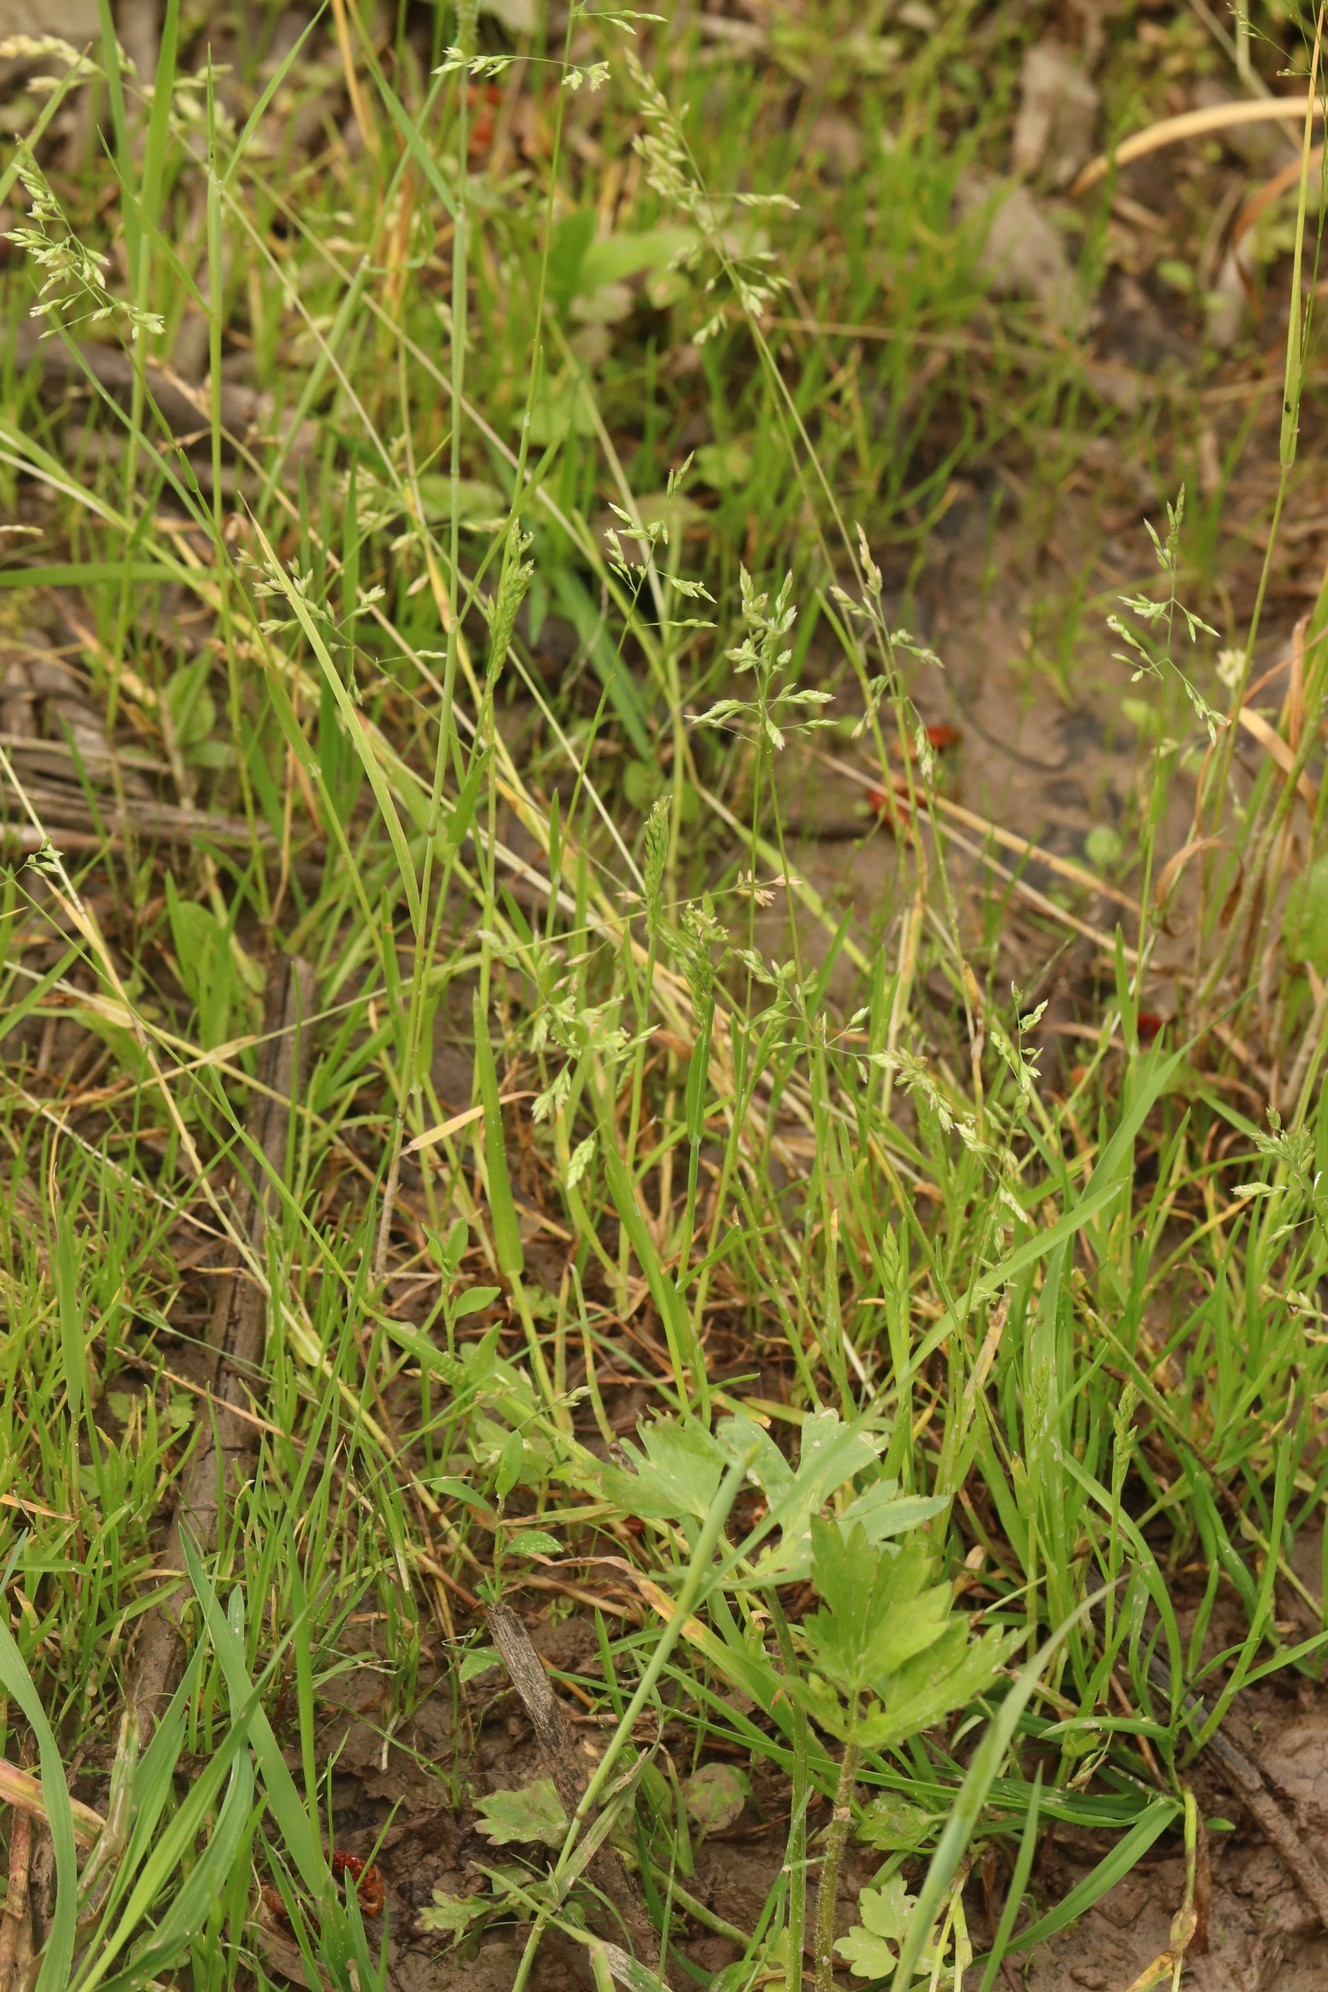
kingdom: Plantae
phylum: Tracheophyta
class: Liliopsida
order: Poales
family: Poaceae
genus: Poa
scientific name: Poa annua
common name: Annual bluegrass
